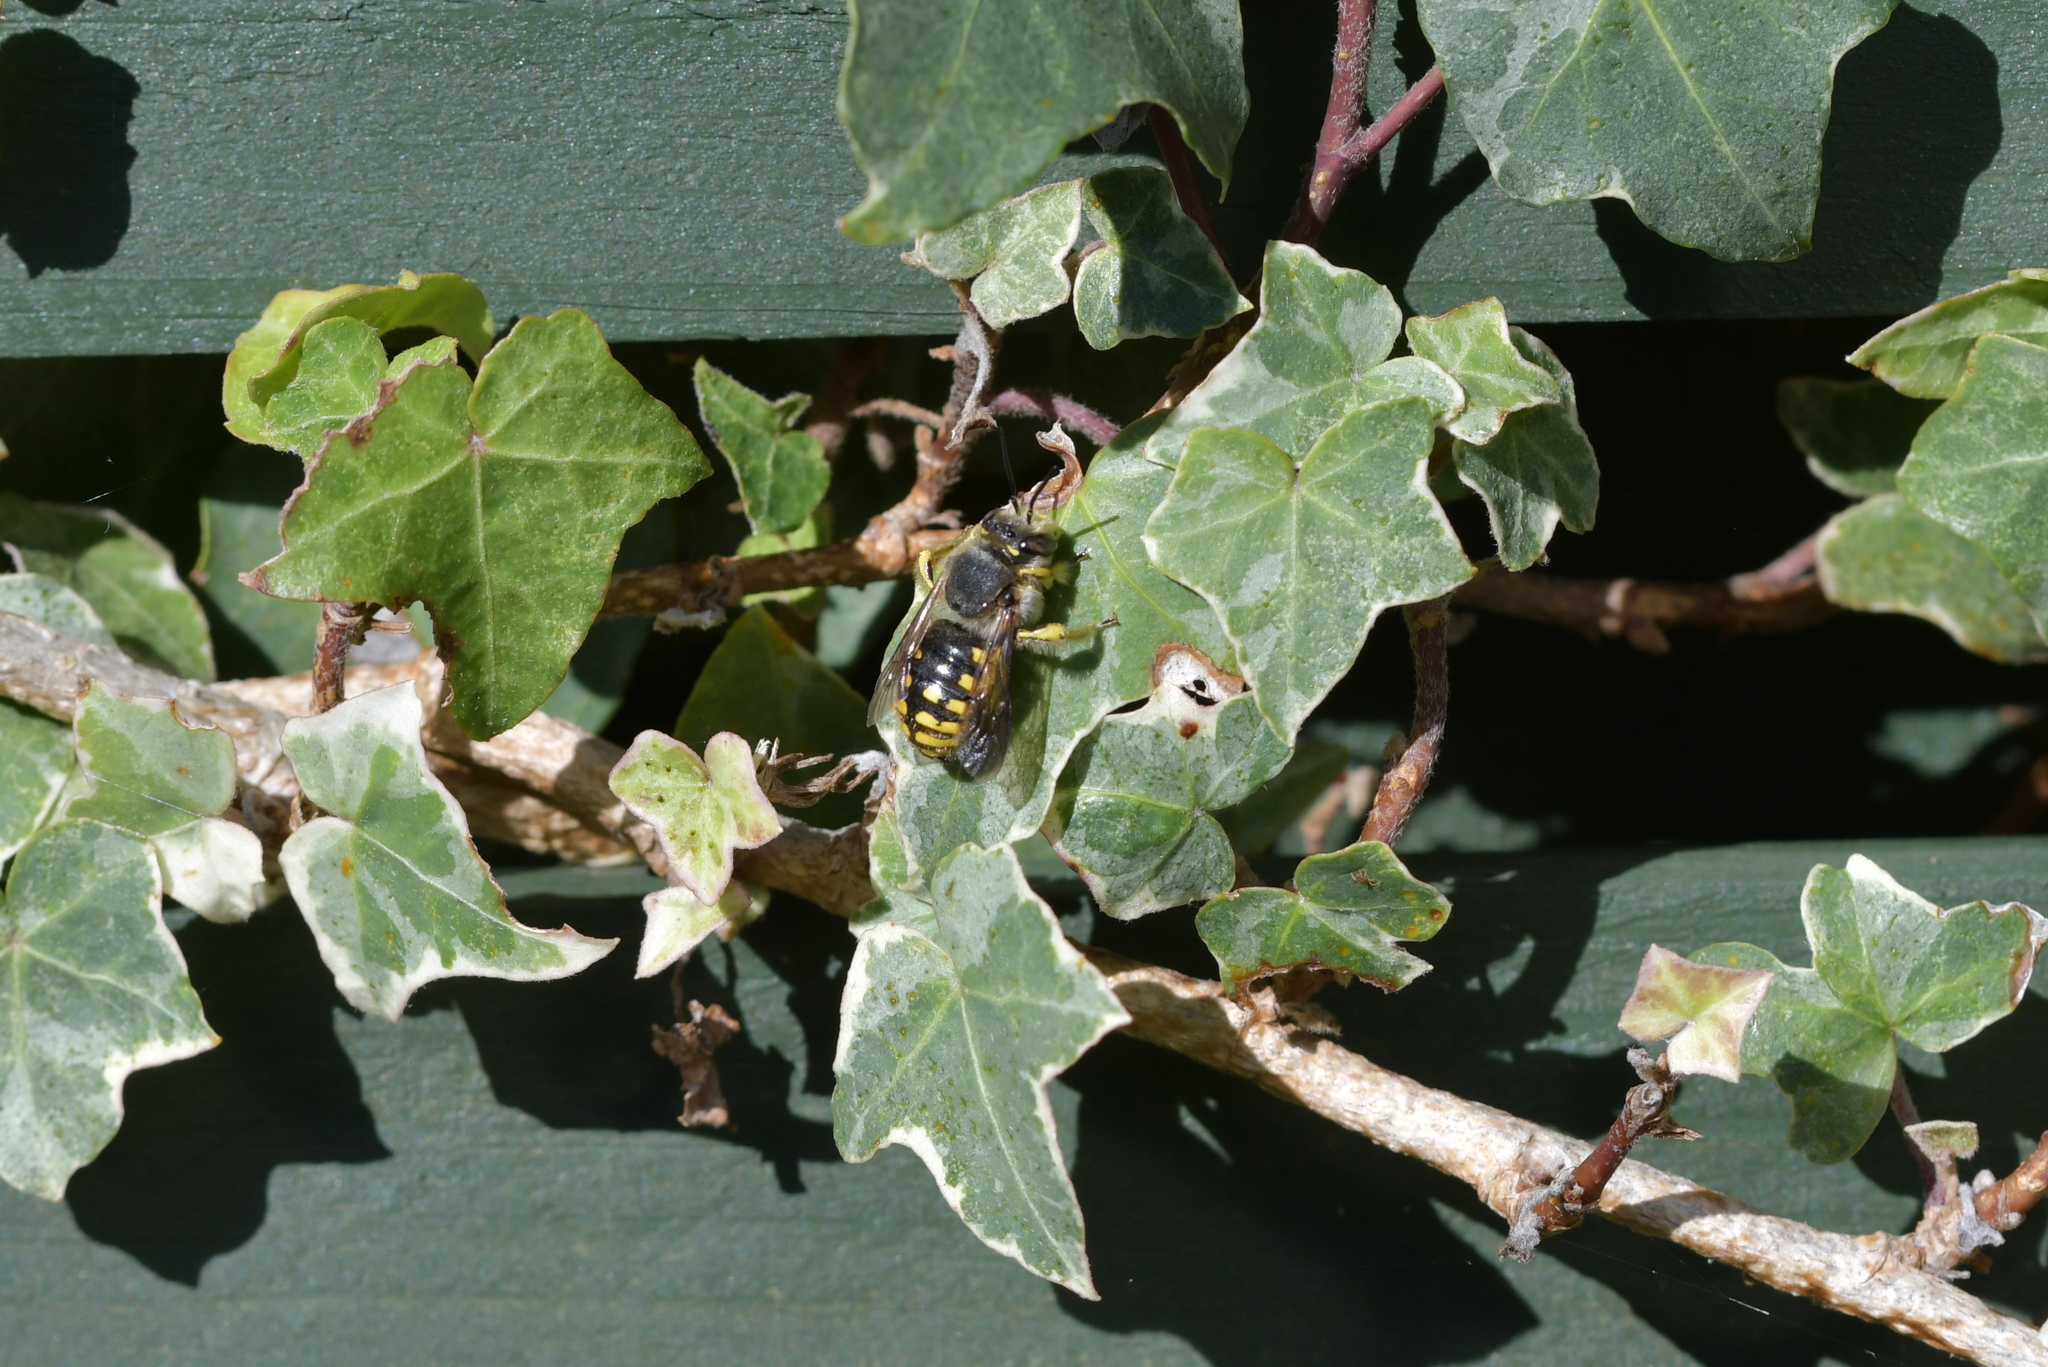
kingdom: Animalia
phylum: Arthropoda
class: Insecta
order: Hymenoptera
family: Megachilidae
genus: Anthidium
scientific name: Anthidium manicatum
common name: Wool carder bee
